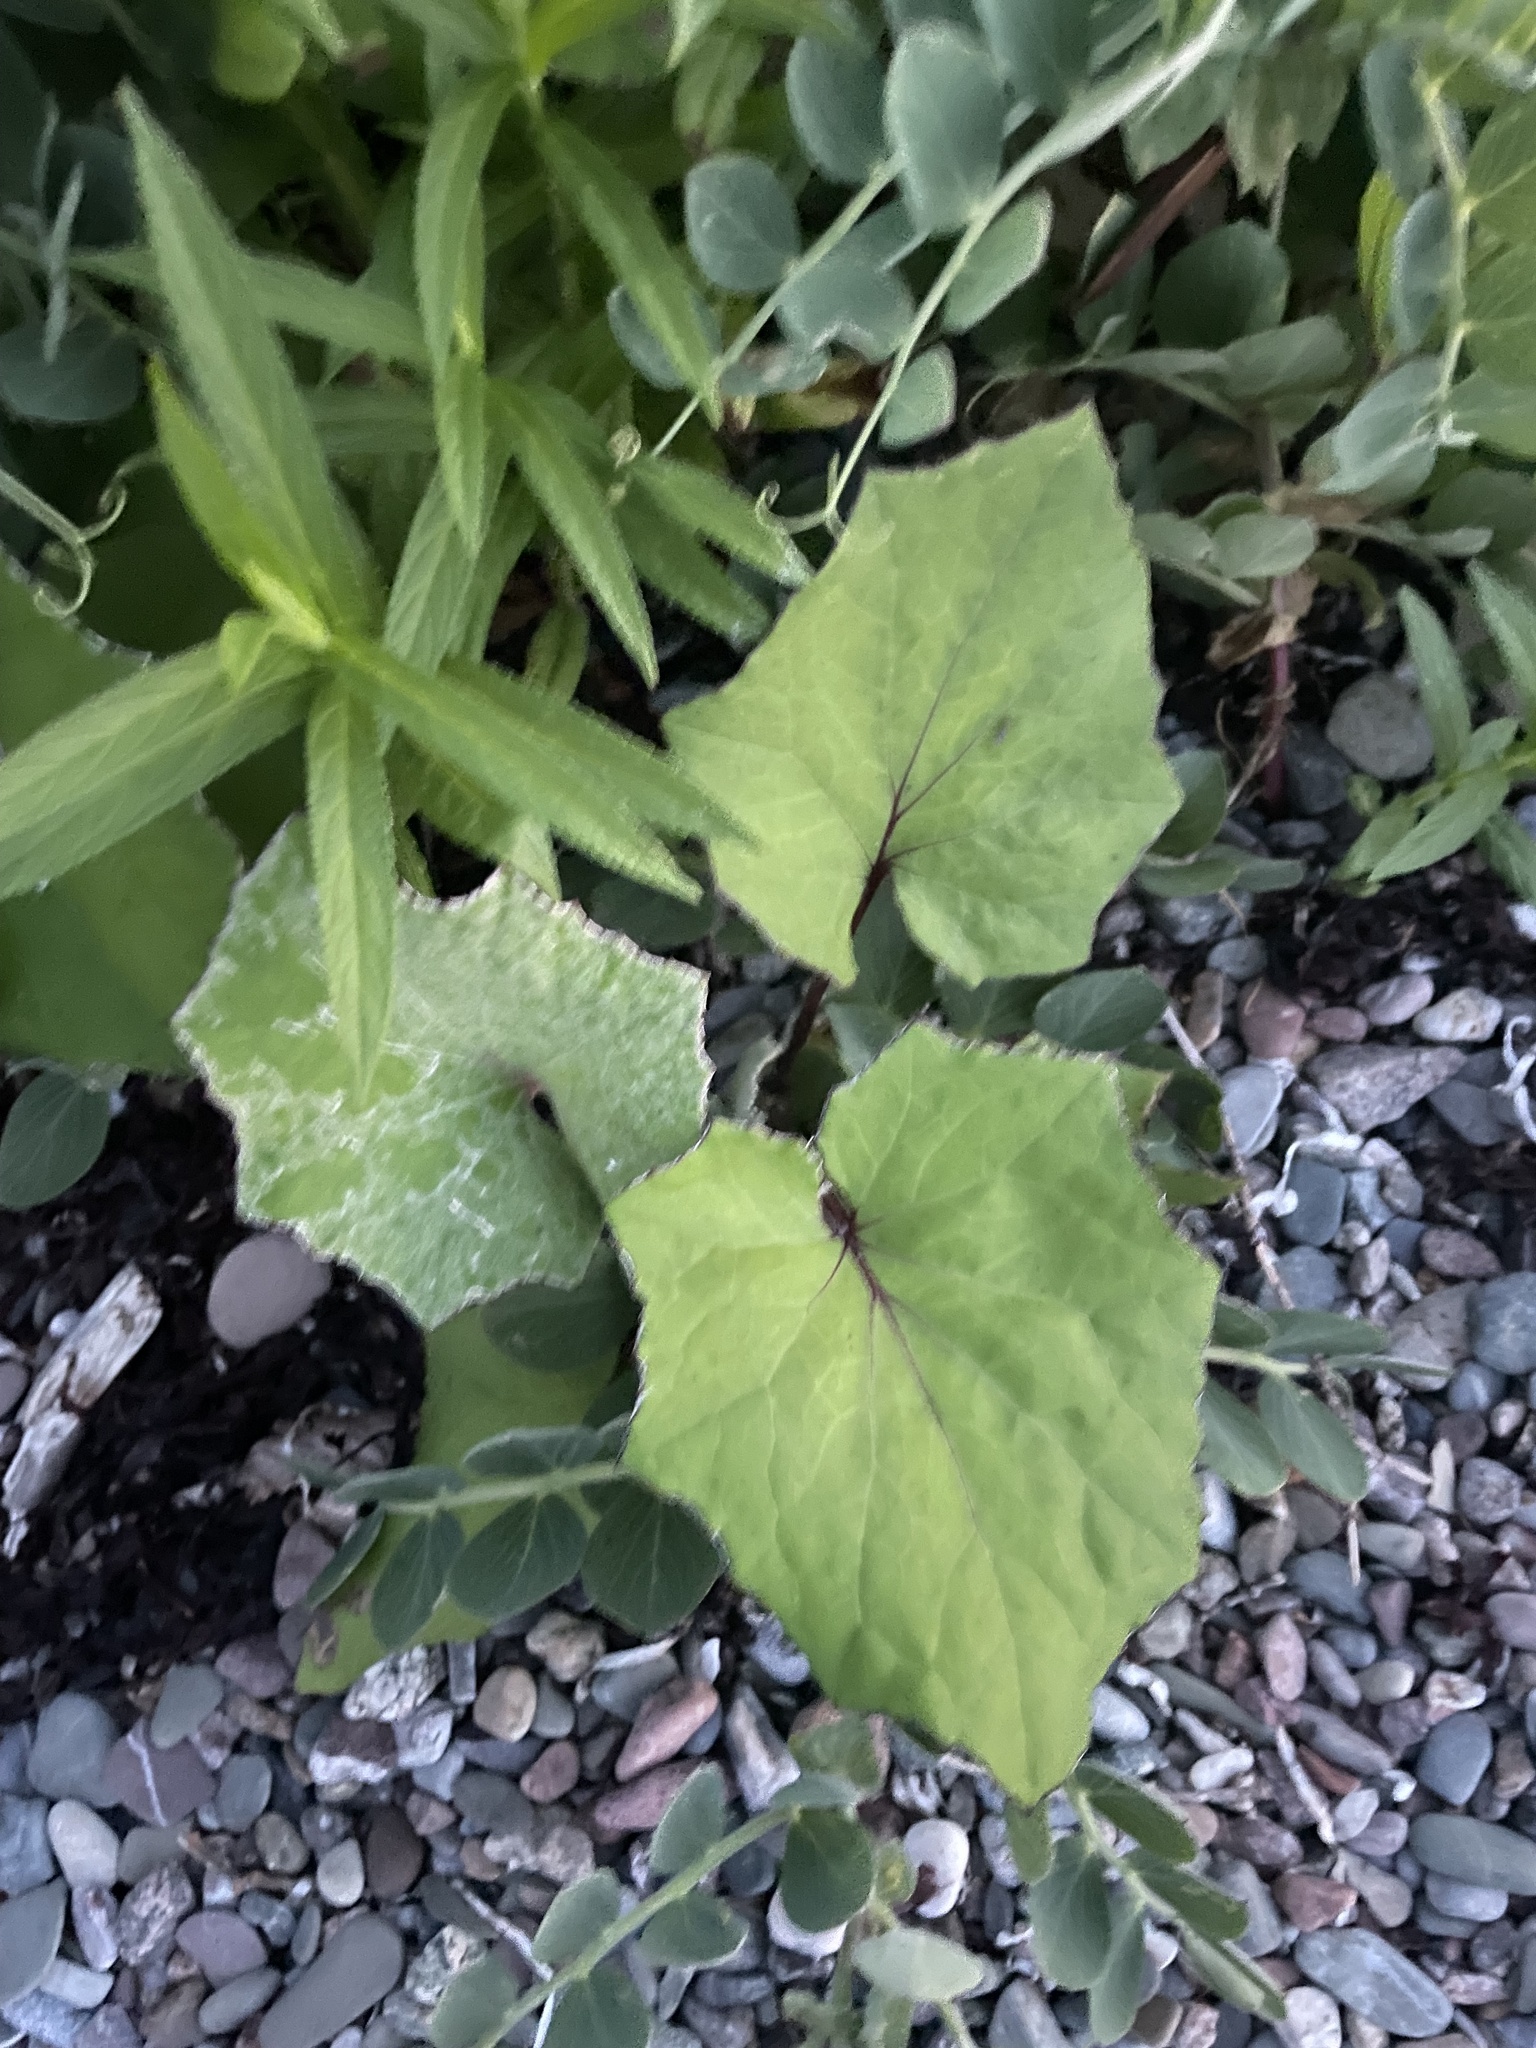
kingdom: Plantae
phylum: Tracheophyta
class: Magnoliopsida
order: Asterales
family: Asteraceae
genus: Tussilago
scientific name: Tussilago farfara
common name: Coltsfoot
